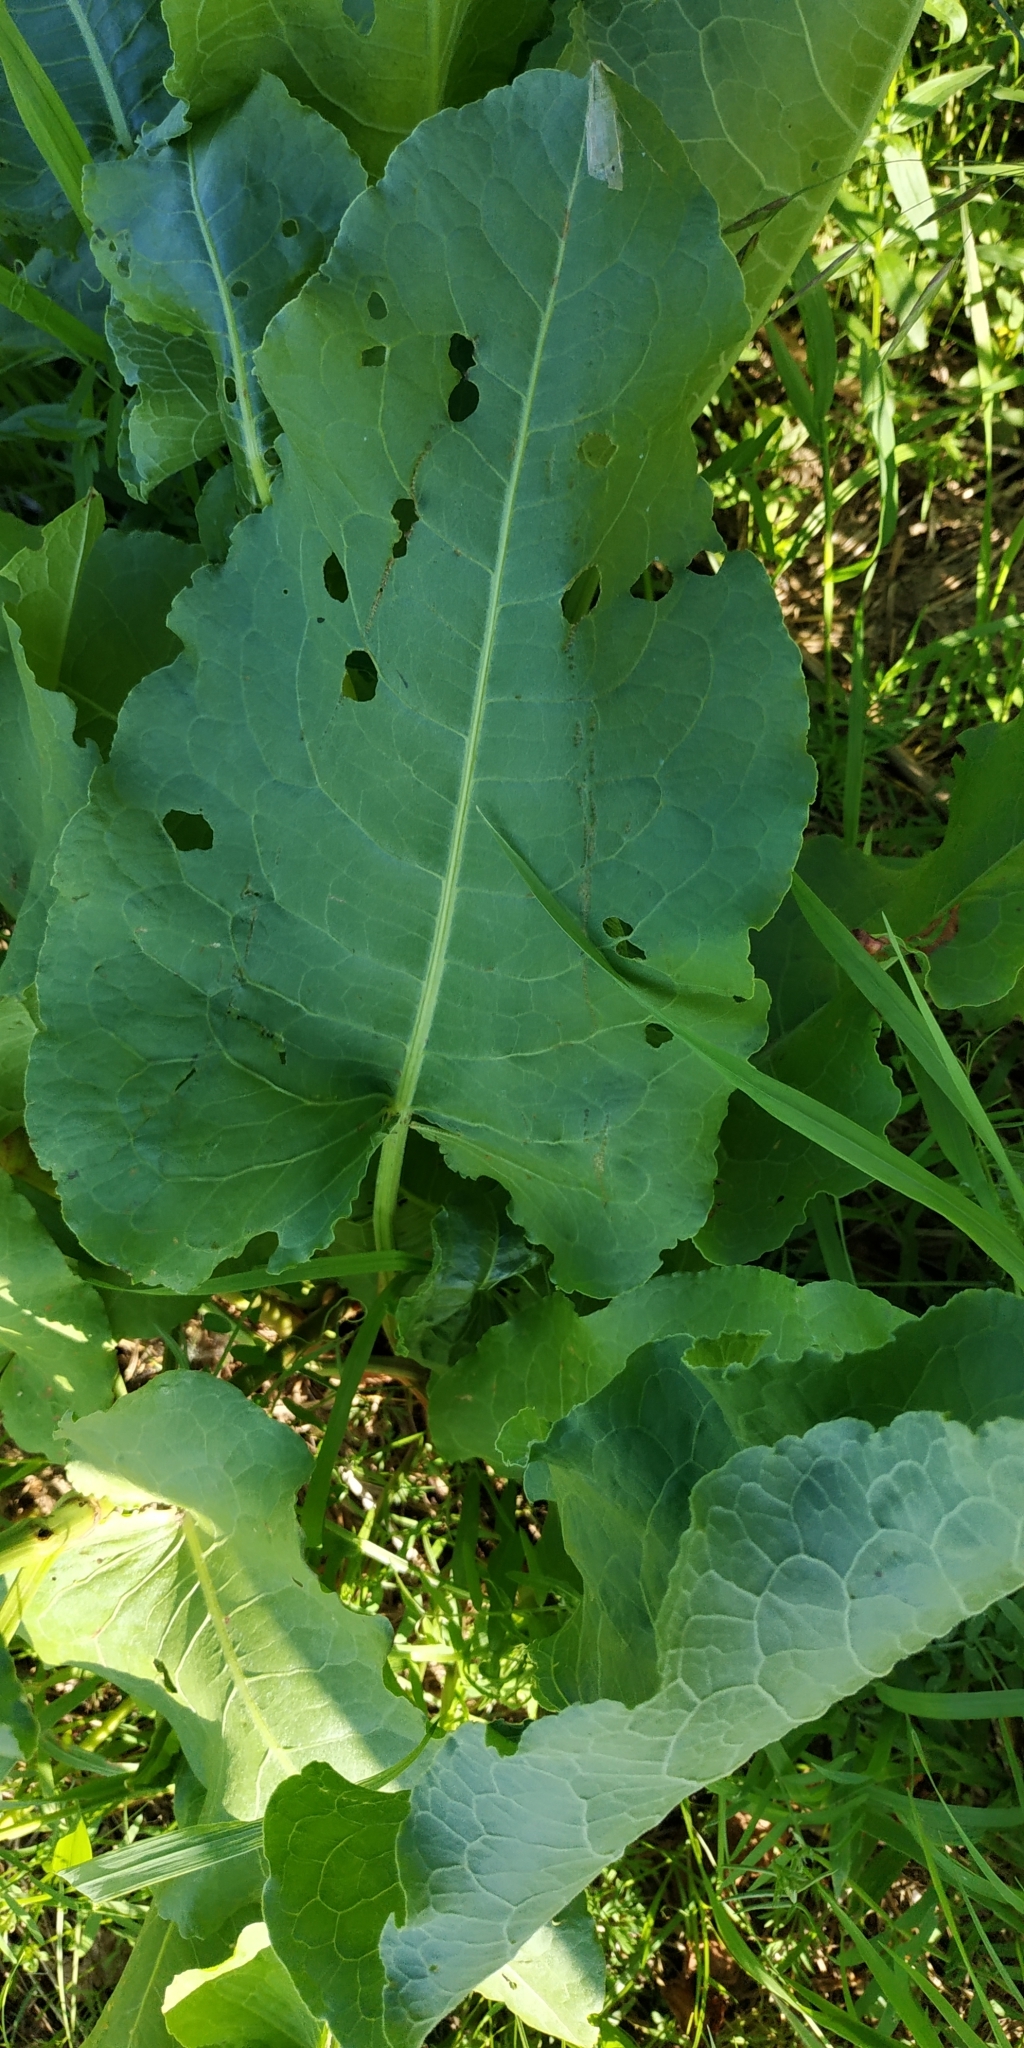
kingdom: Plantae
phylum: Tracheophyta
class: Magnoliopsida
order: Caryophyllales
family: Polygonaceae
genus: Rumex
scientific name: Rumex aquaticus
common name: Scottish dock
